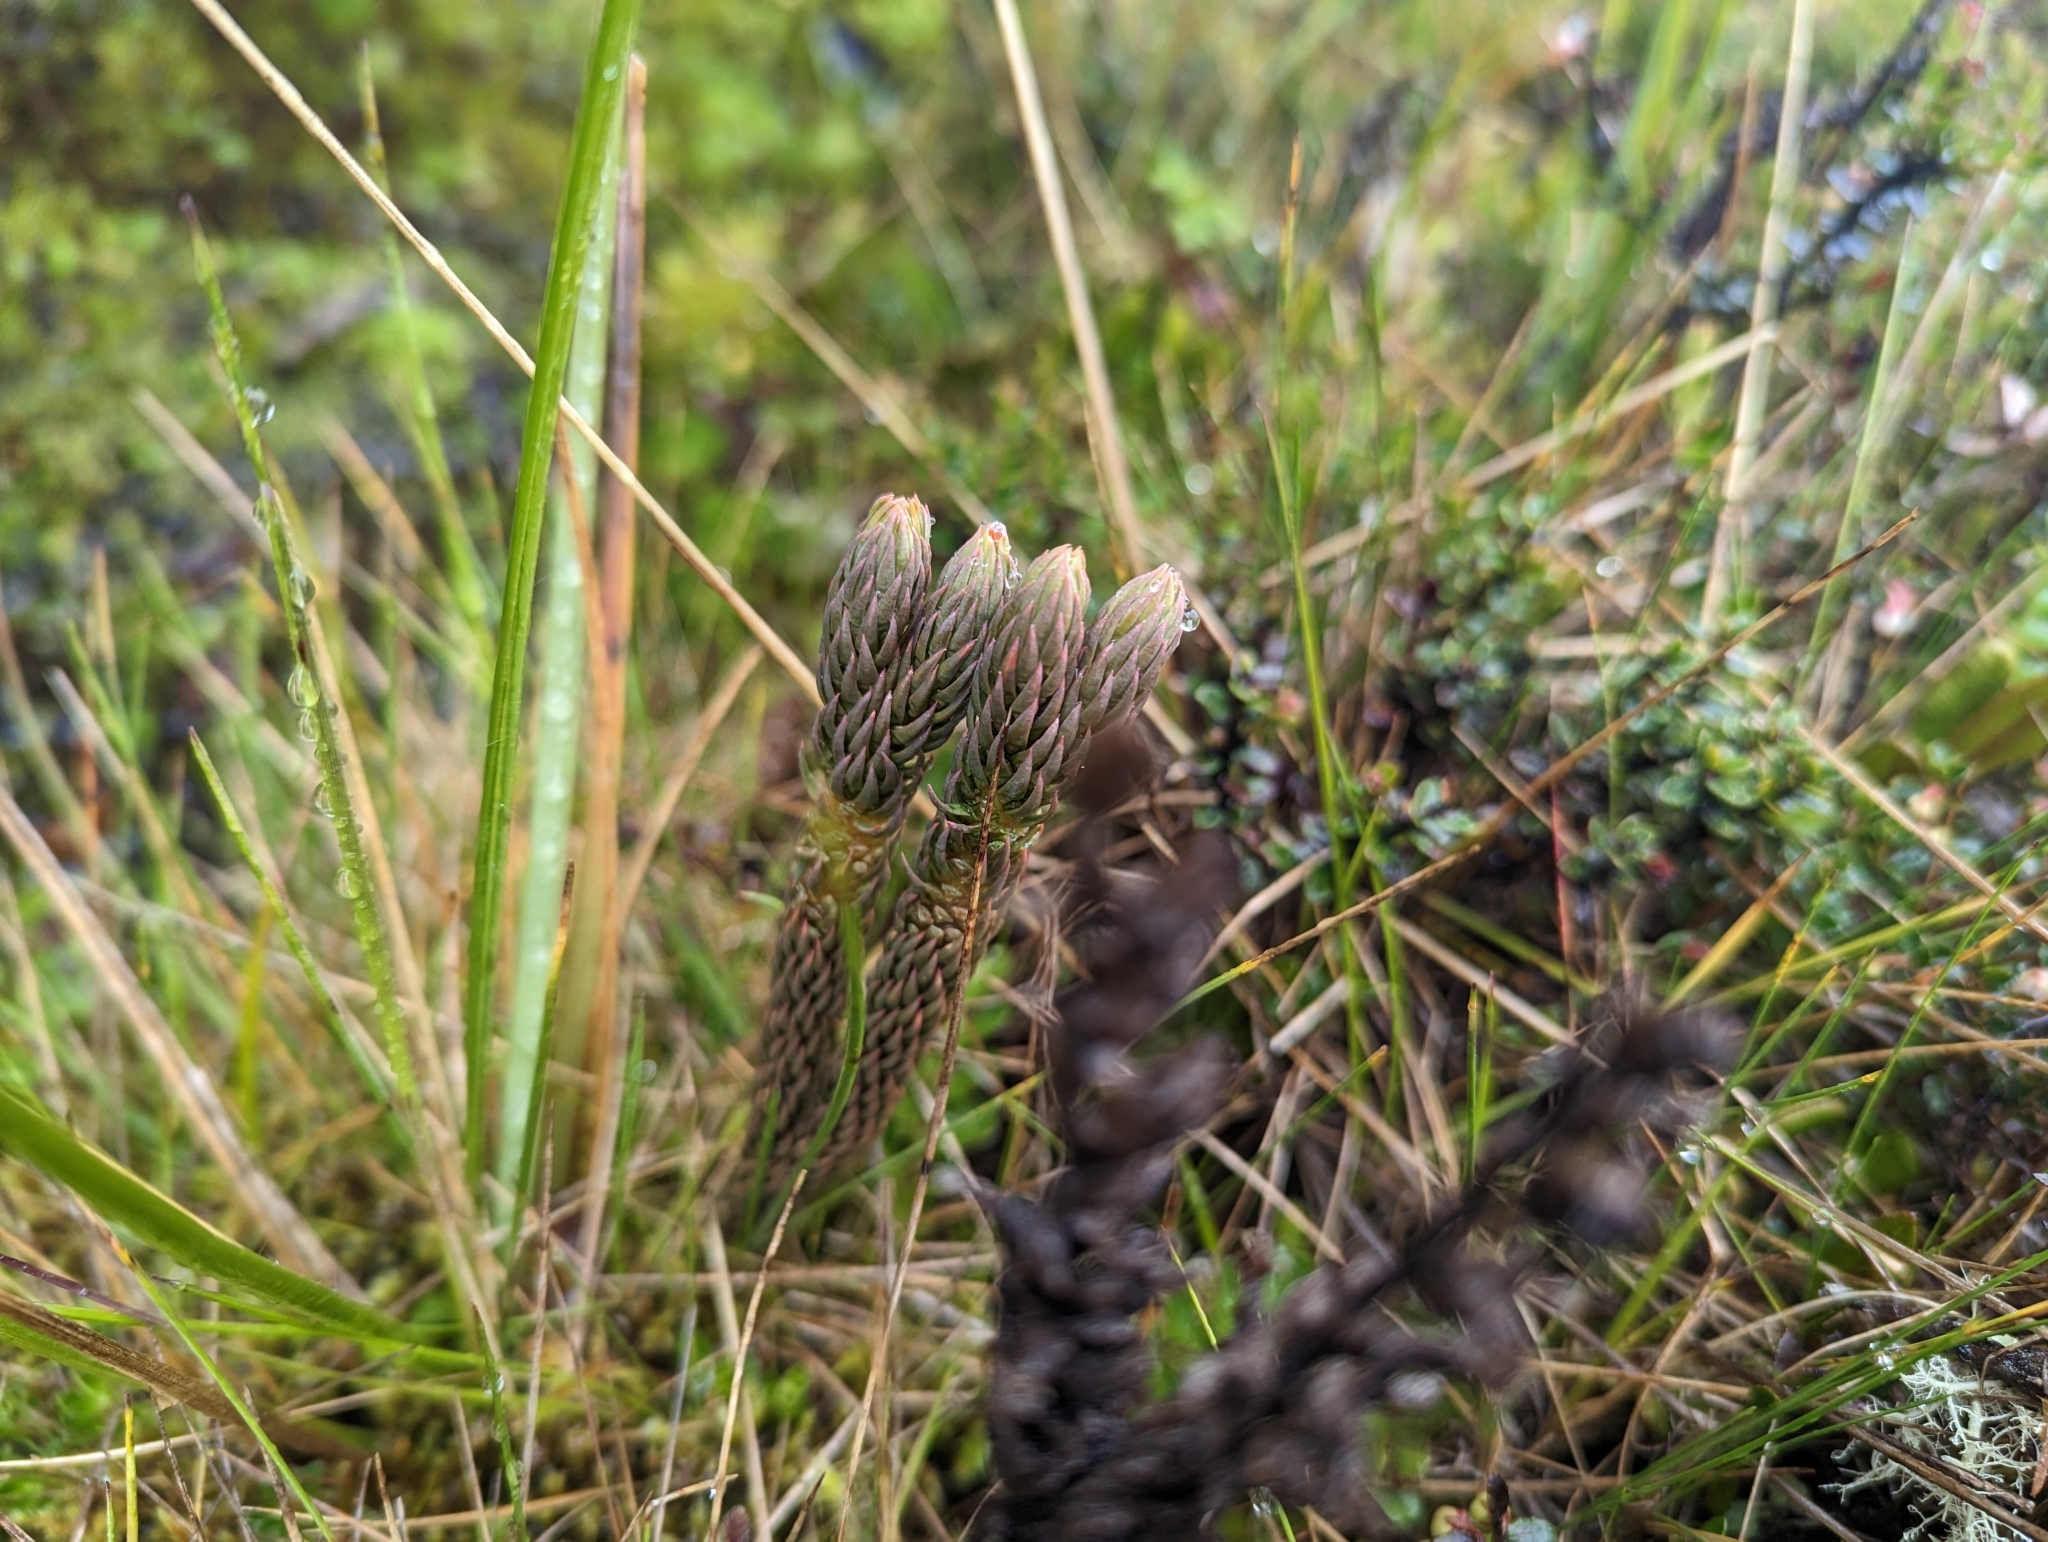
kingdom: Plantae
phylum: Tracheophyta
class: Lycopodiopsida
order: Lycopodiales
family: Lycopodiaceae
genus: Phlegmariurus
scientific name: Phlegmariurus crassus
